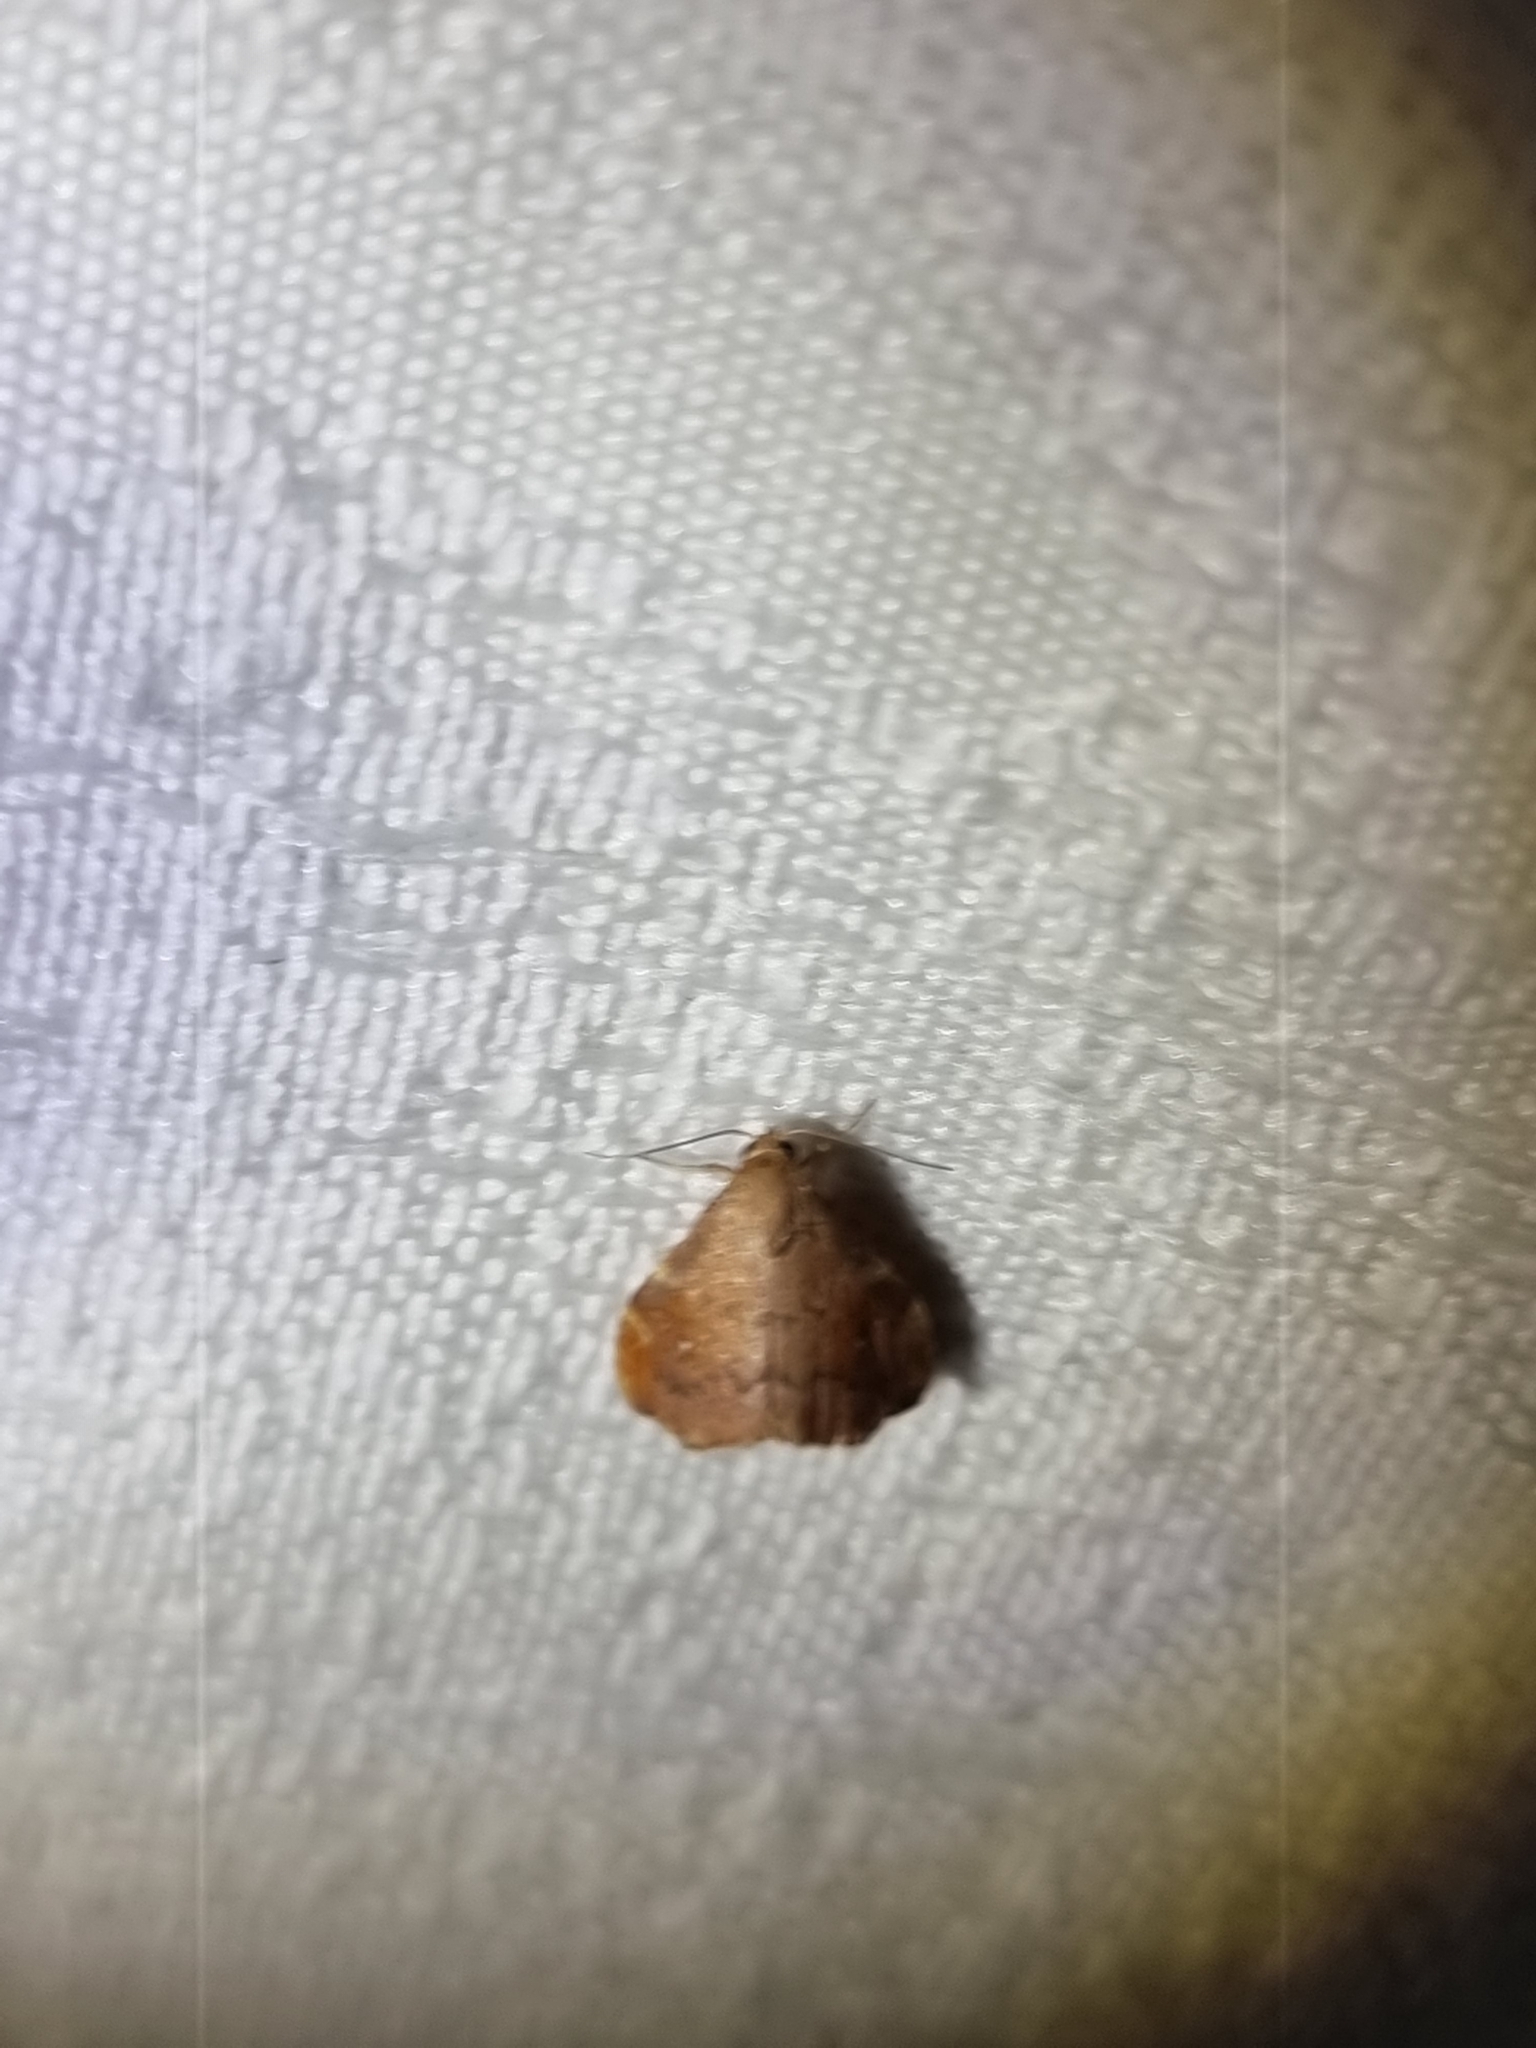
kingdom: Animalia
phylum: Arthropoda
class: Insecta
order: Lepidoptera
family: Noctuidae
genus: Heterorta
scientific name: Heterorta plutonis
